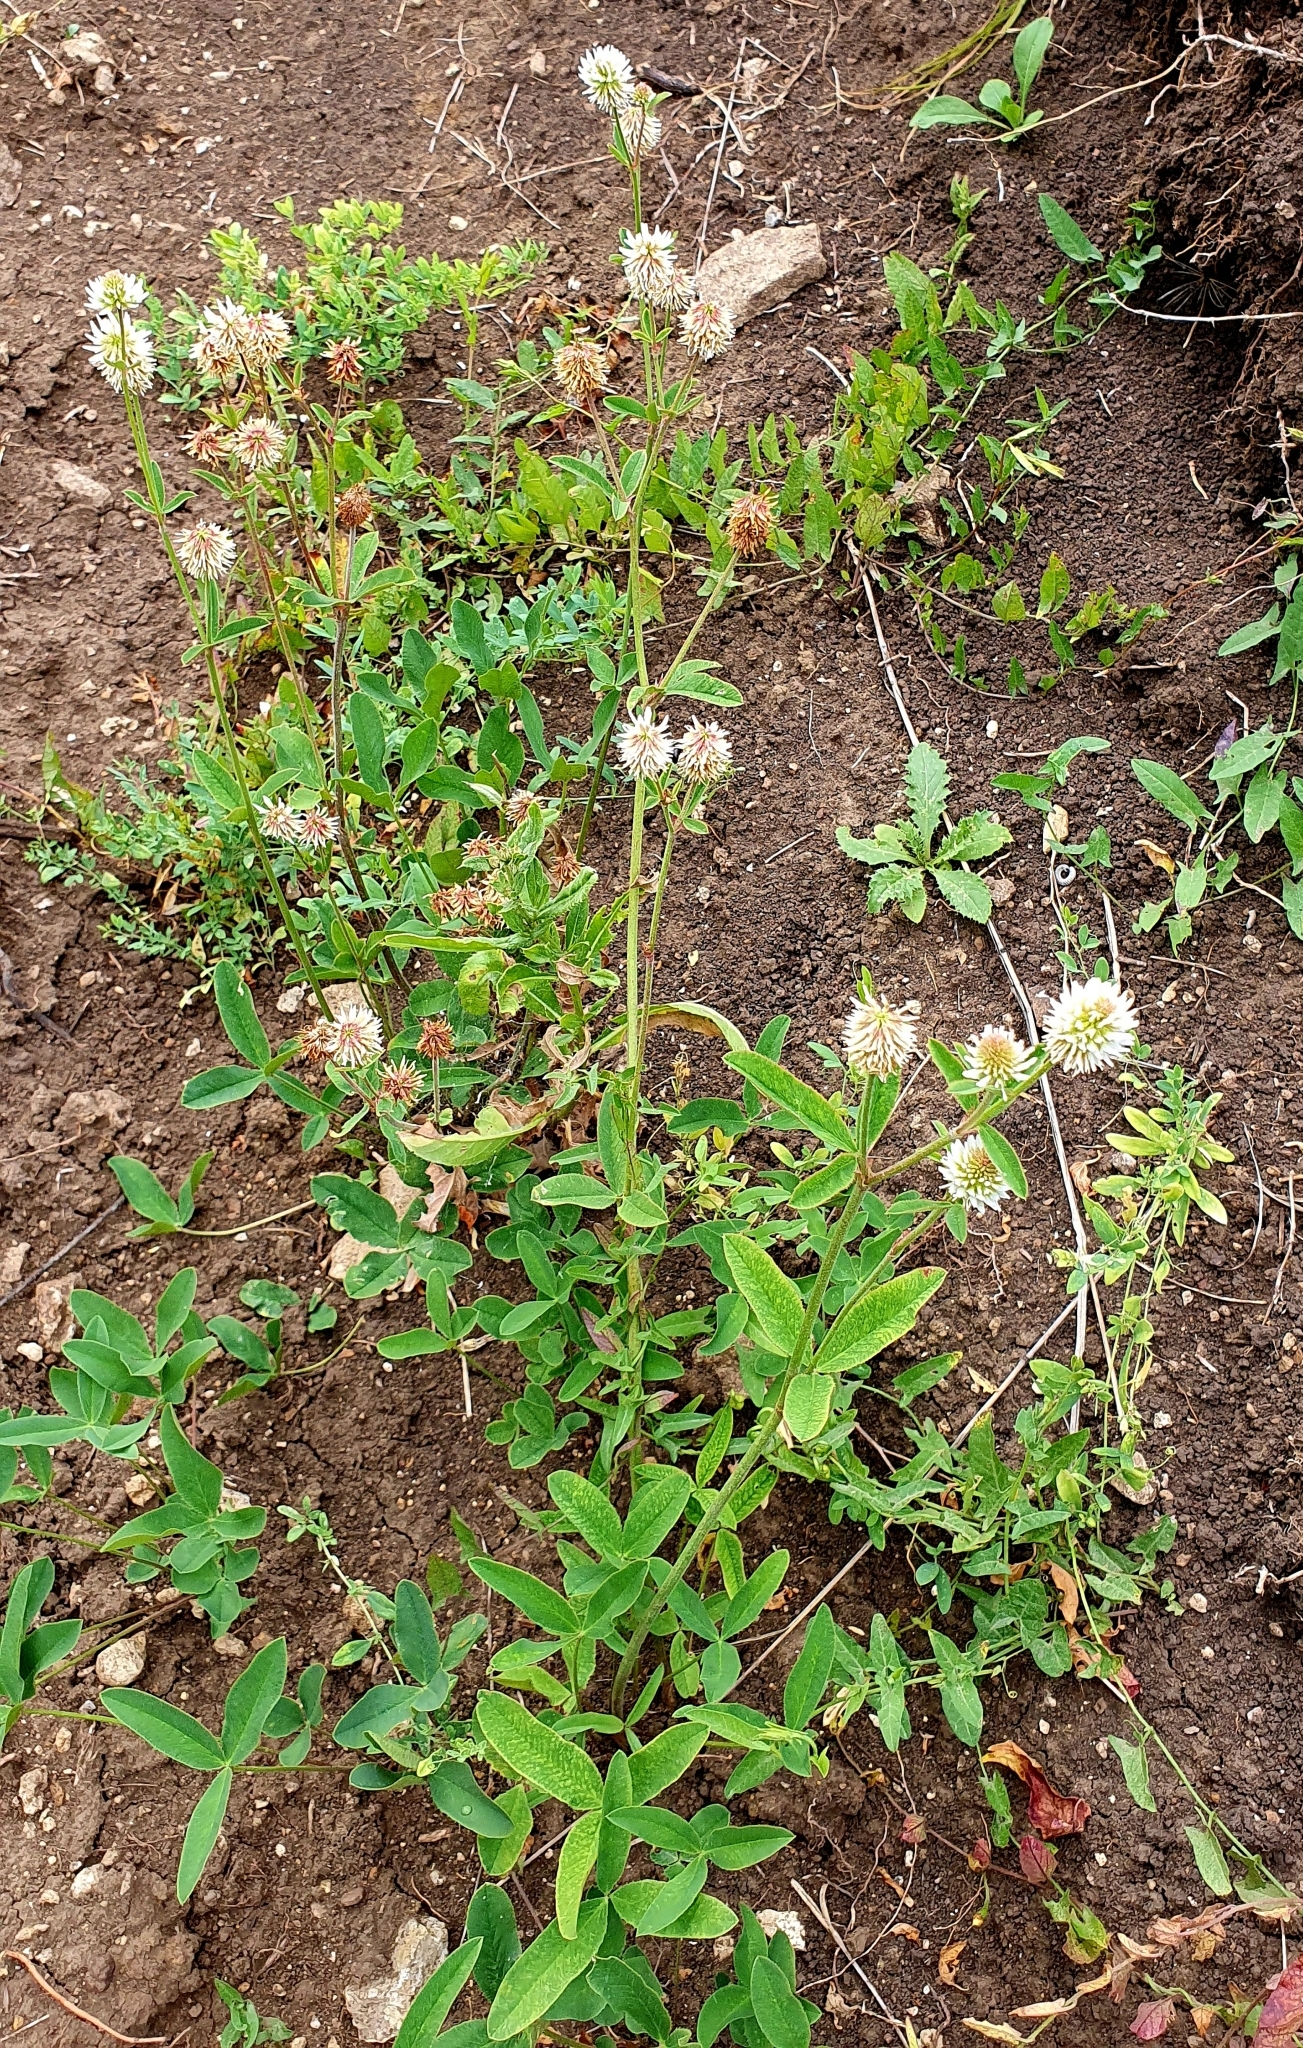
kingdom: Plantae
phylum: Tracheophyta
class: Magnoliopsida
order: Fabales
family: Fabaceae
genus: Trifolium
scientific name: Trifolium montanum
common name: Mountain clover
